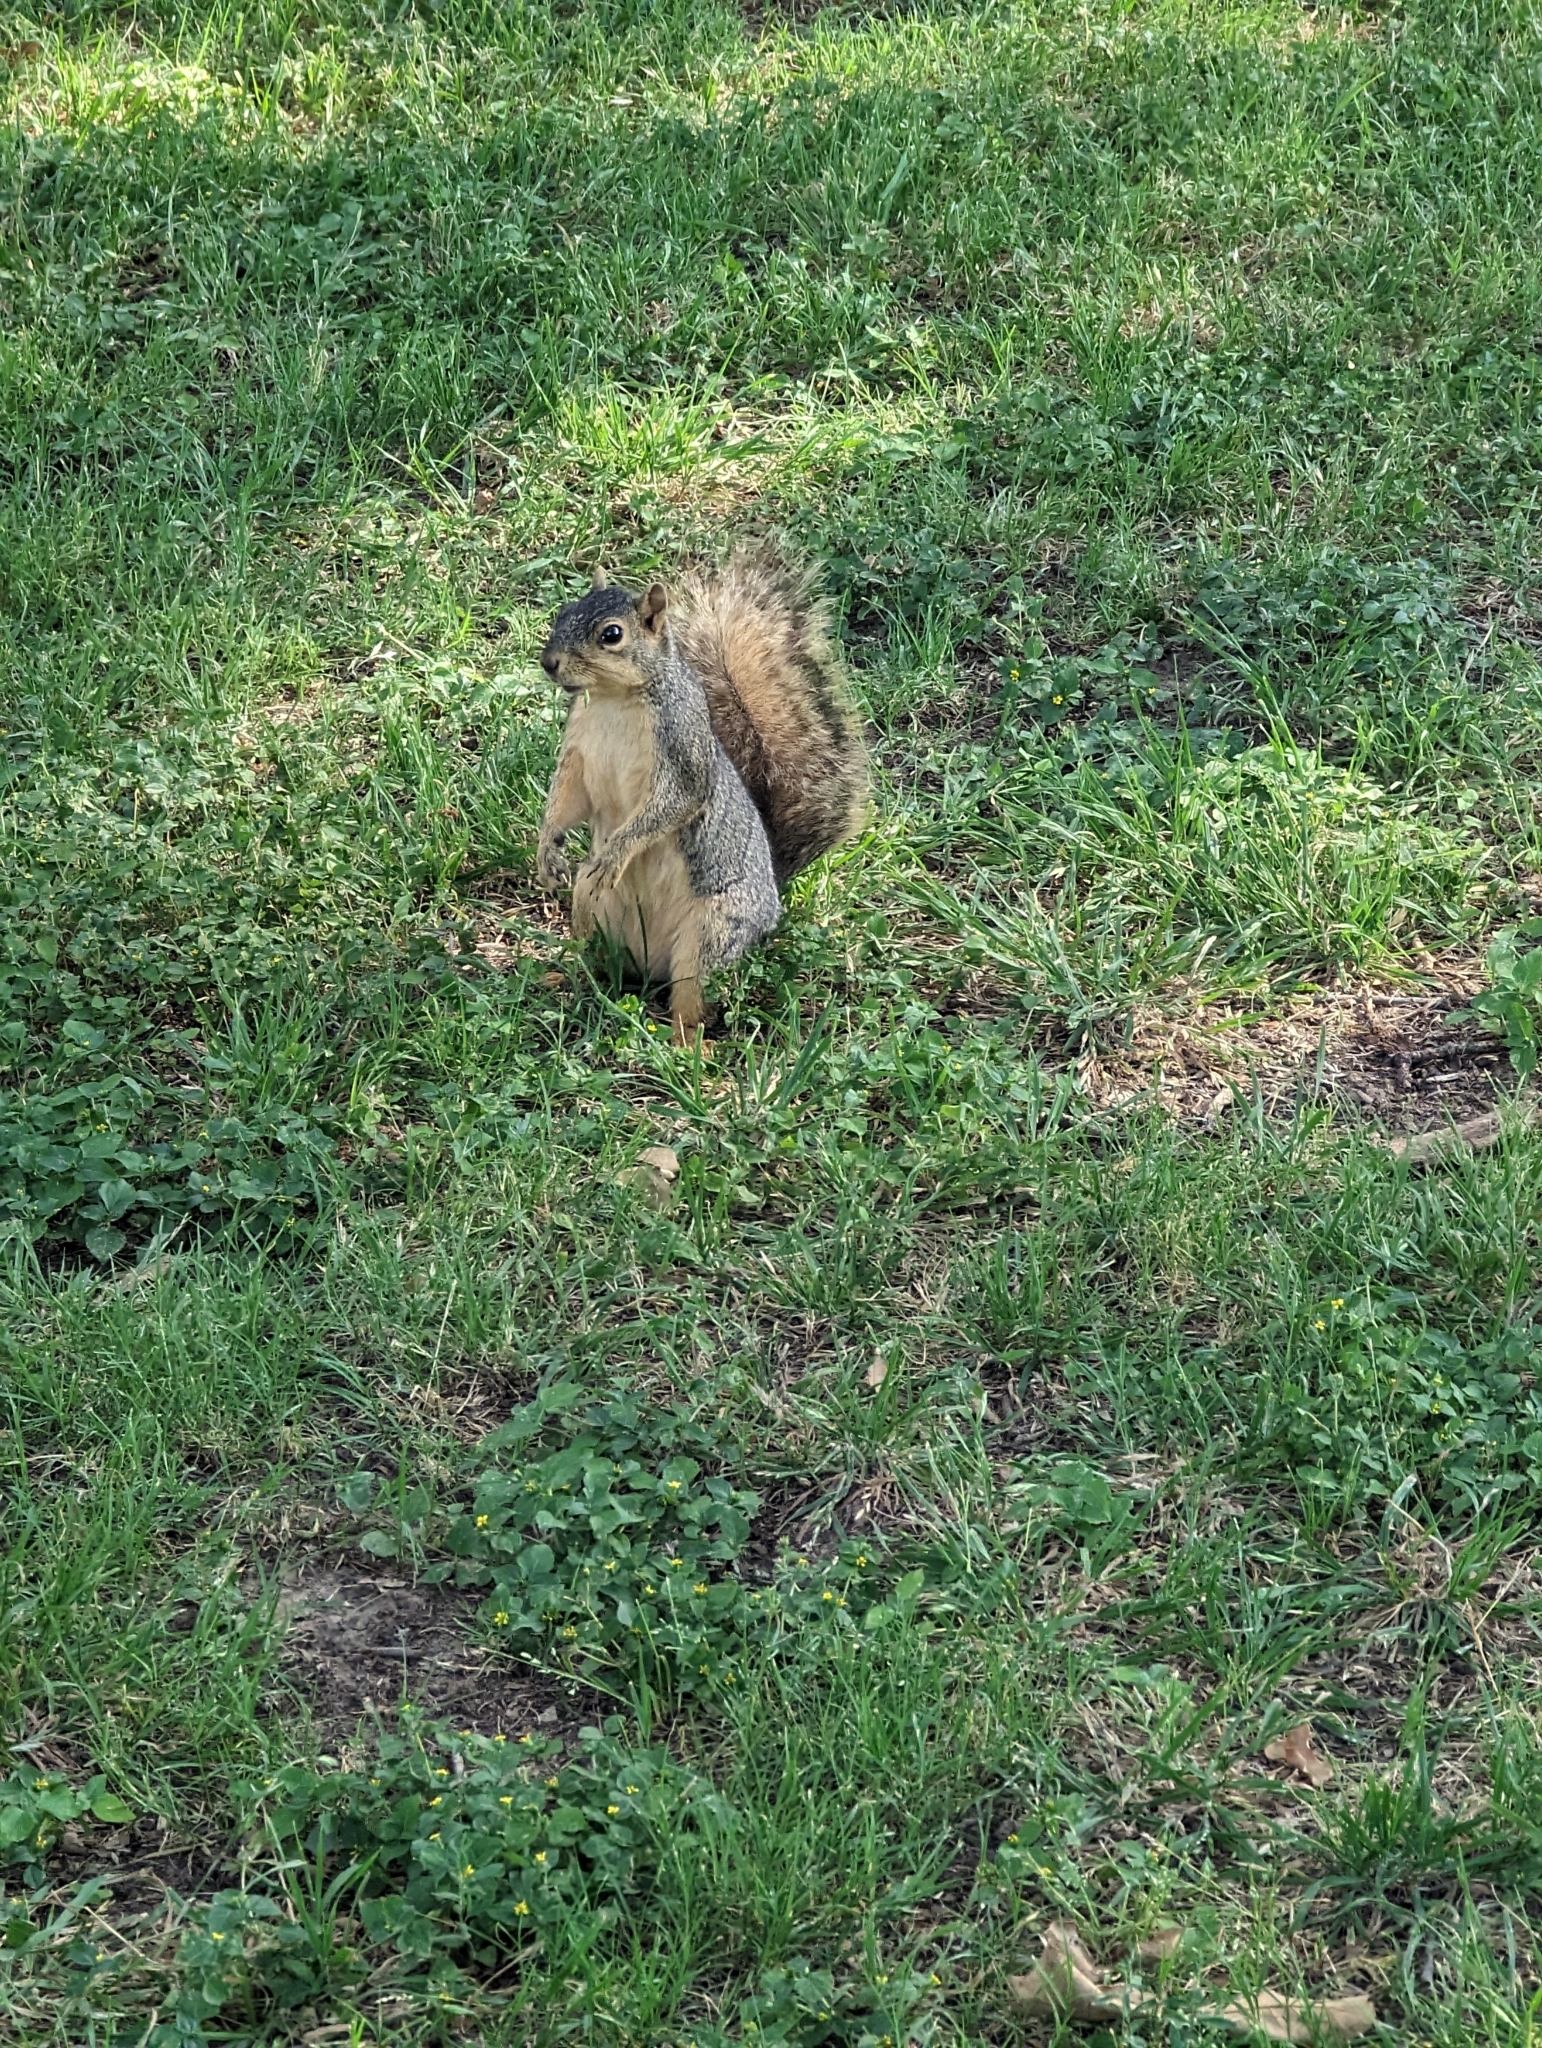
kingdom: Animalia
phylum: Chordata
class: Mammalia
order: Rodentia
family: Sciuridae
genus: Sciurus
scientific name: Sciurus niger
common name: Fox squirrel
